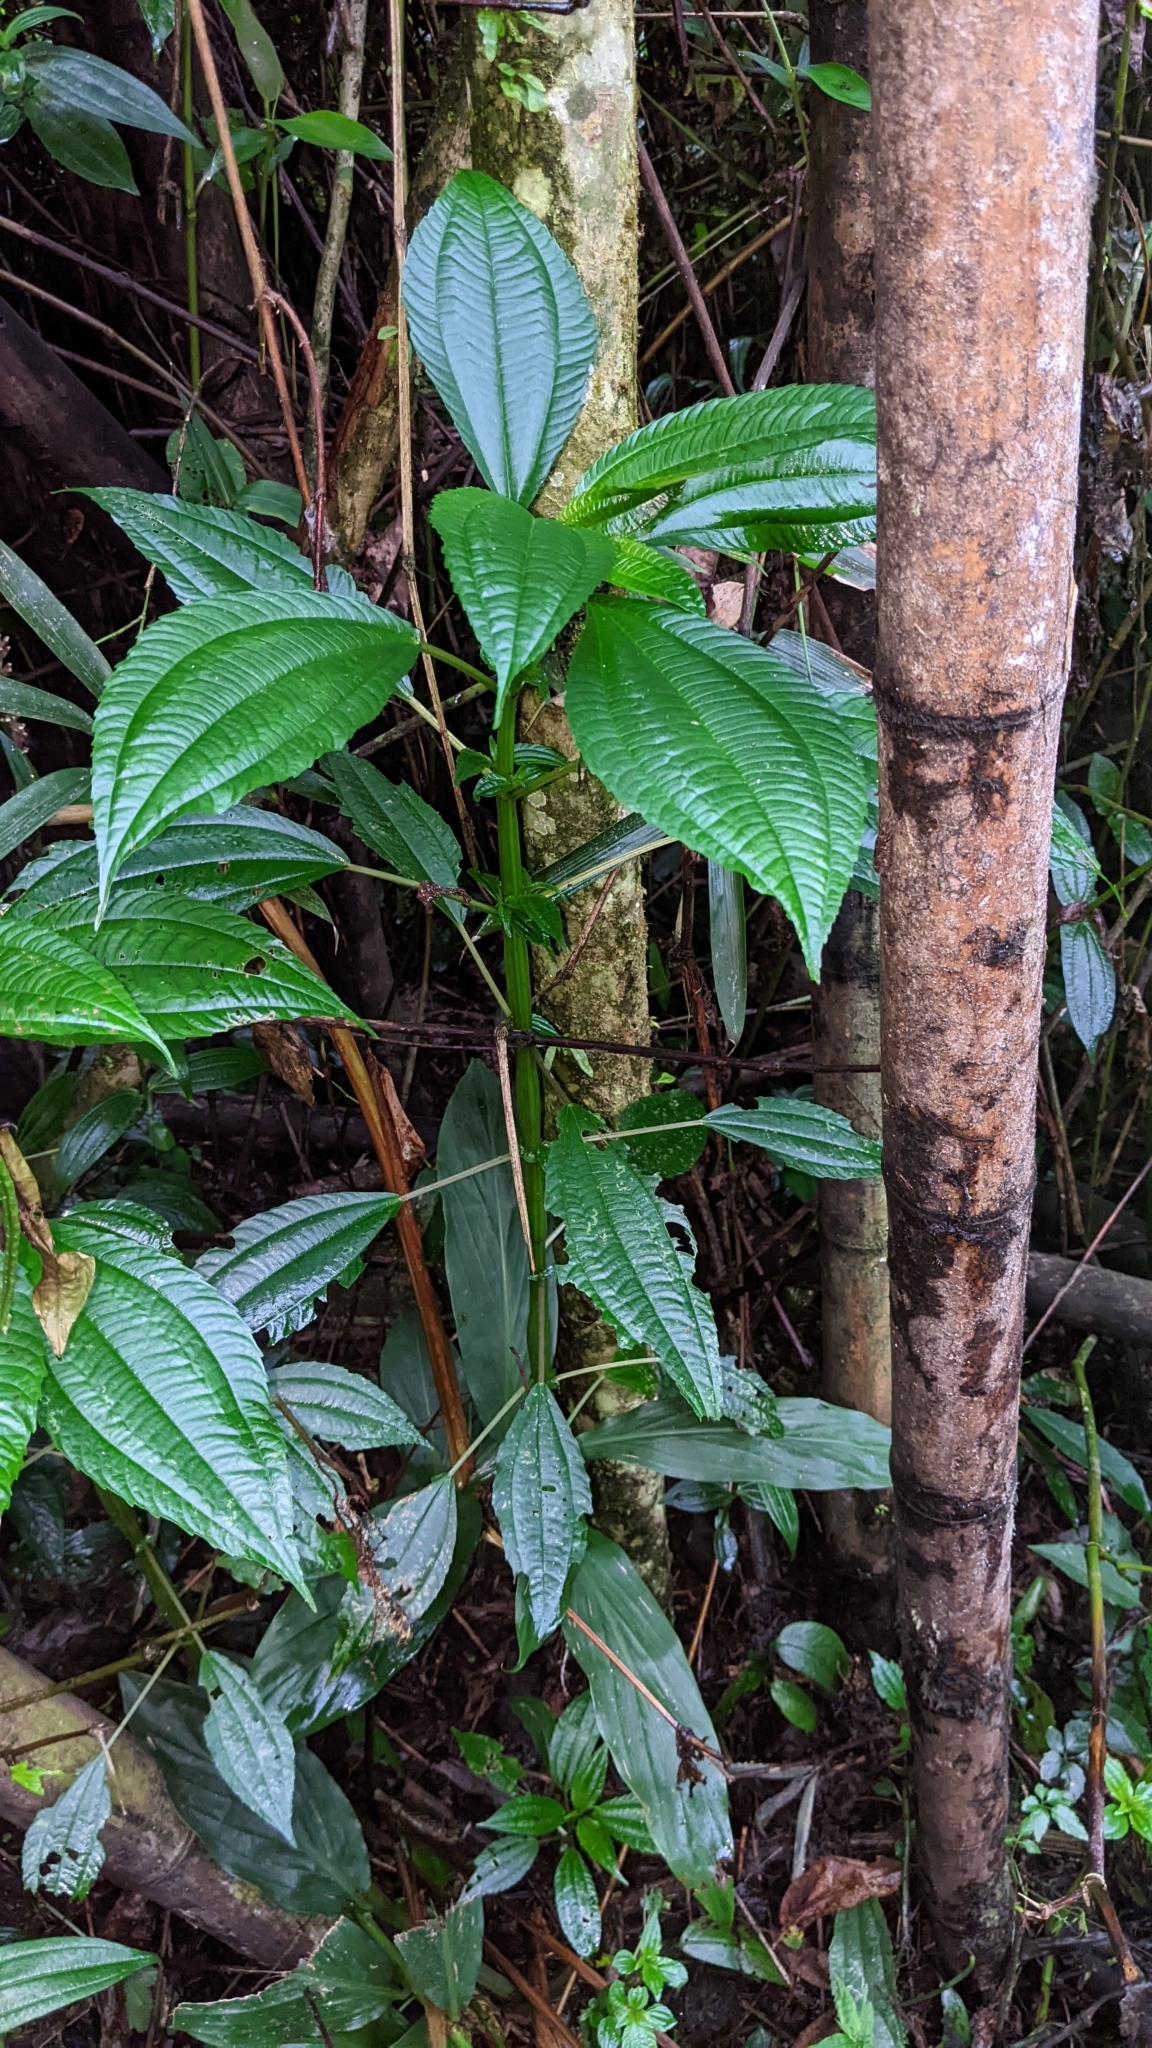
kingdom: Plantae
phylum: Tracheophyta
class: Magnoliopsida
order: Rosales
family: Urticaceae
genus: Pilea
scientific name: Pilea melastomoides
